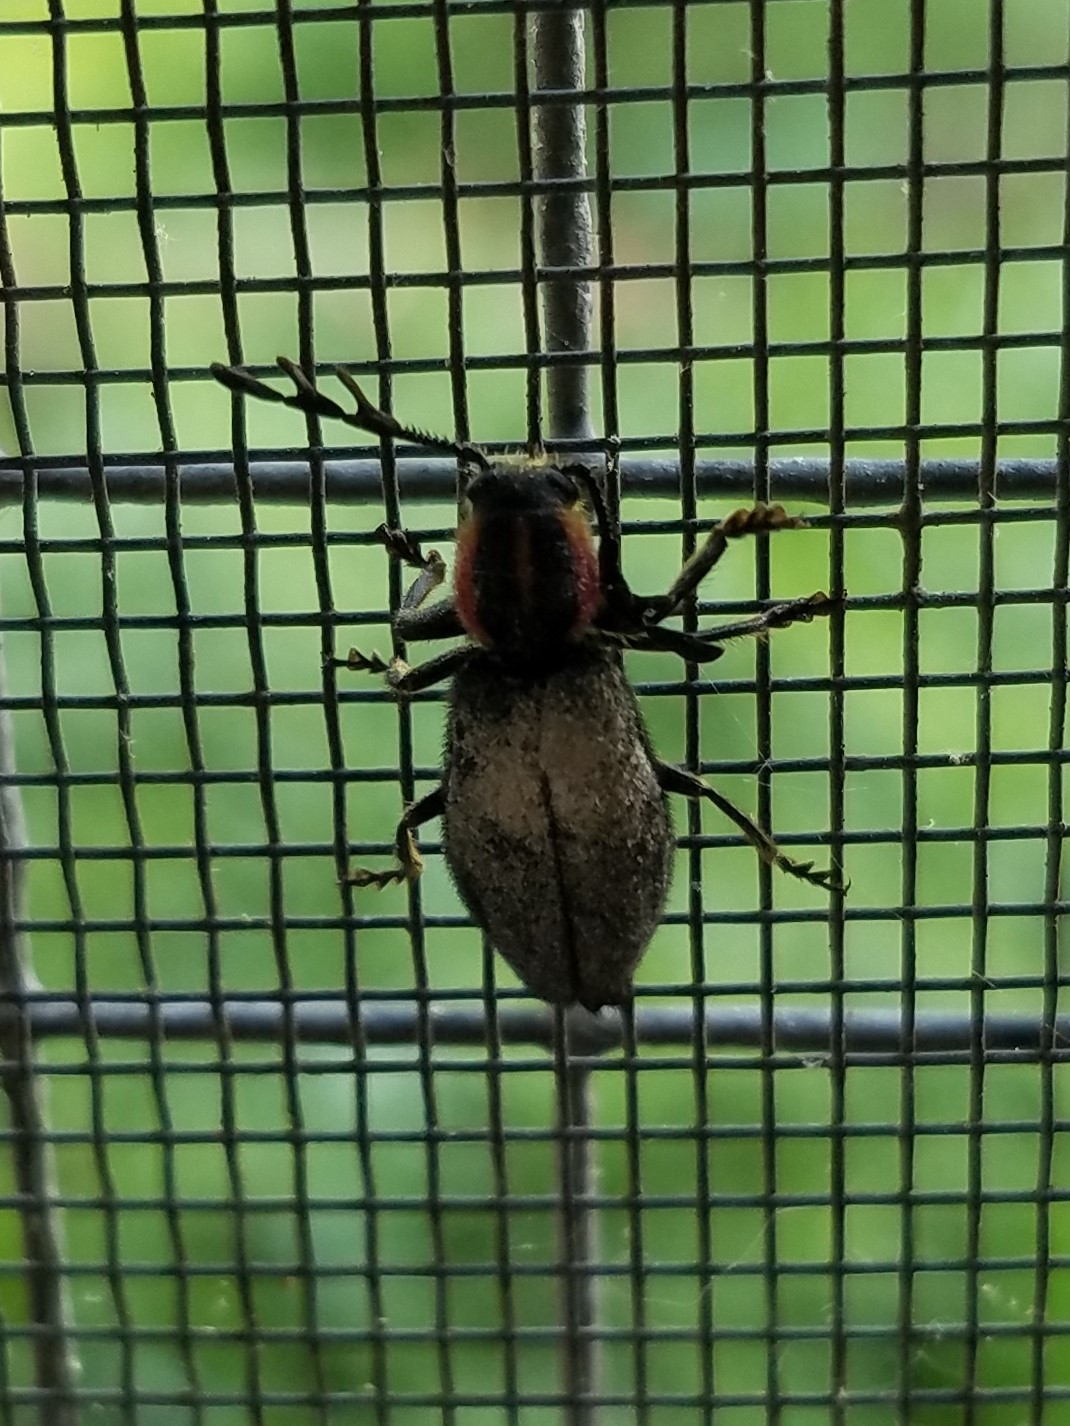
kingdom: Animalia
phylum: Arthropoda
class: Insecta
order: Coleoptera
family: Cleridae
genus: Chariessa
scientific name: Chariessa pilosa
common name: Pilose checkered beetle
